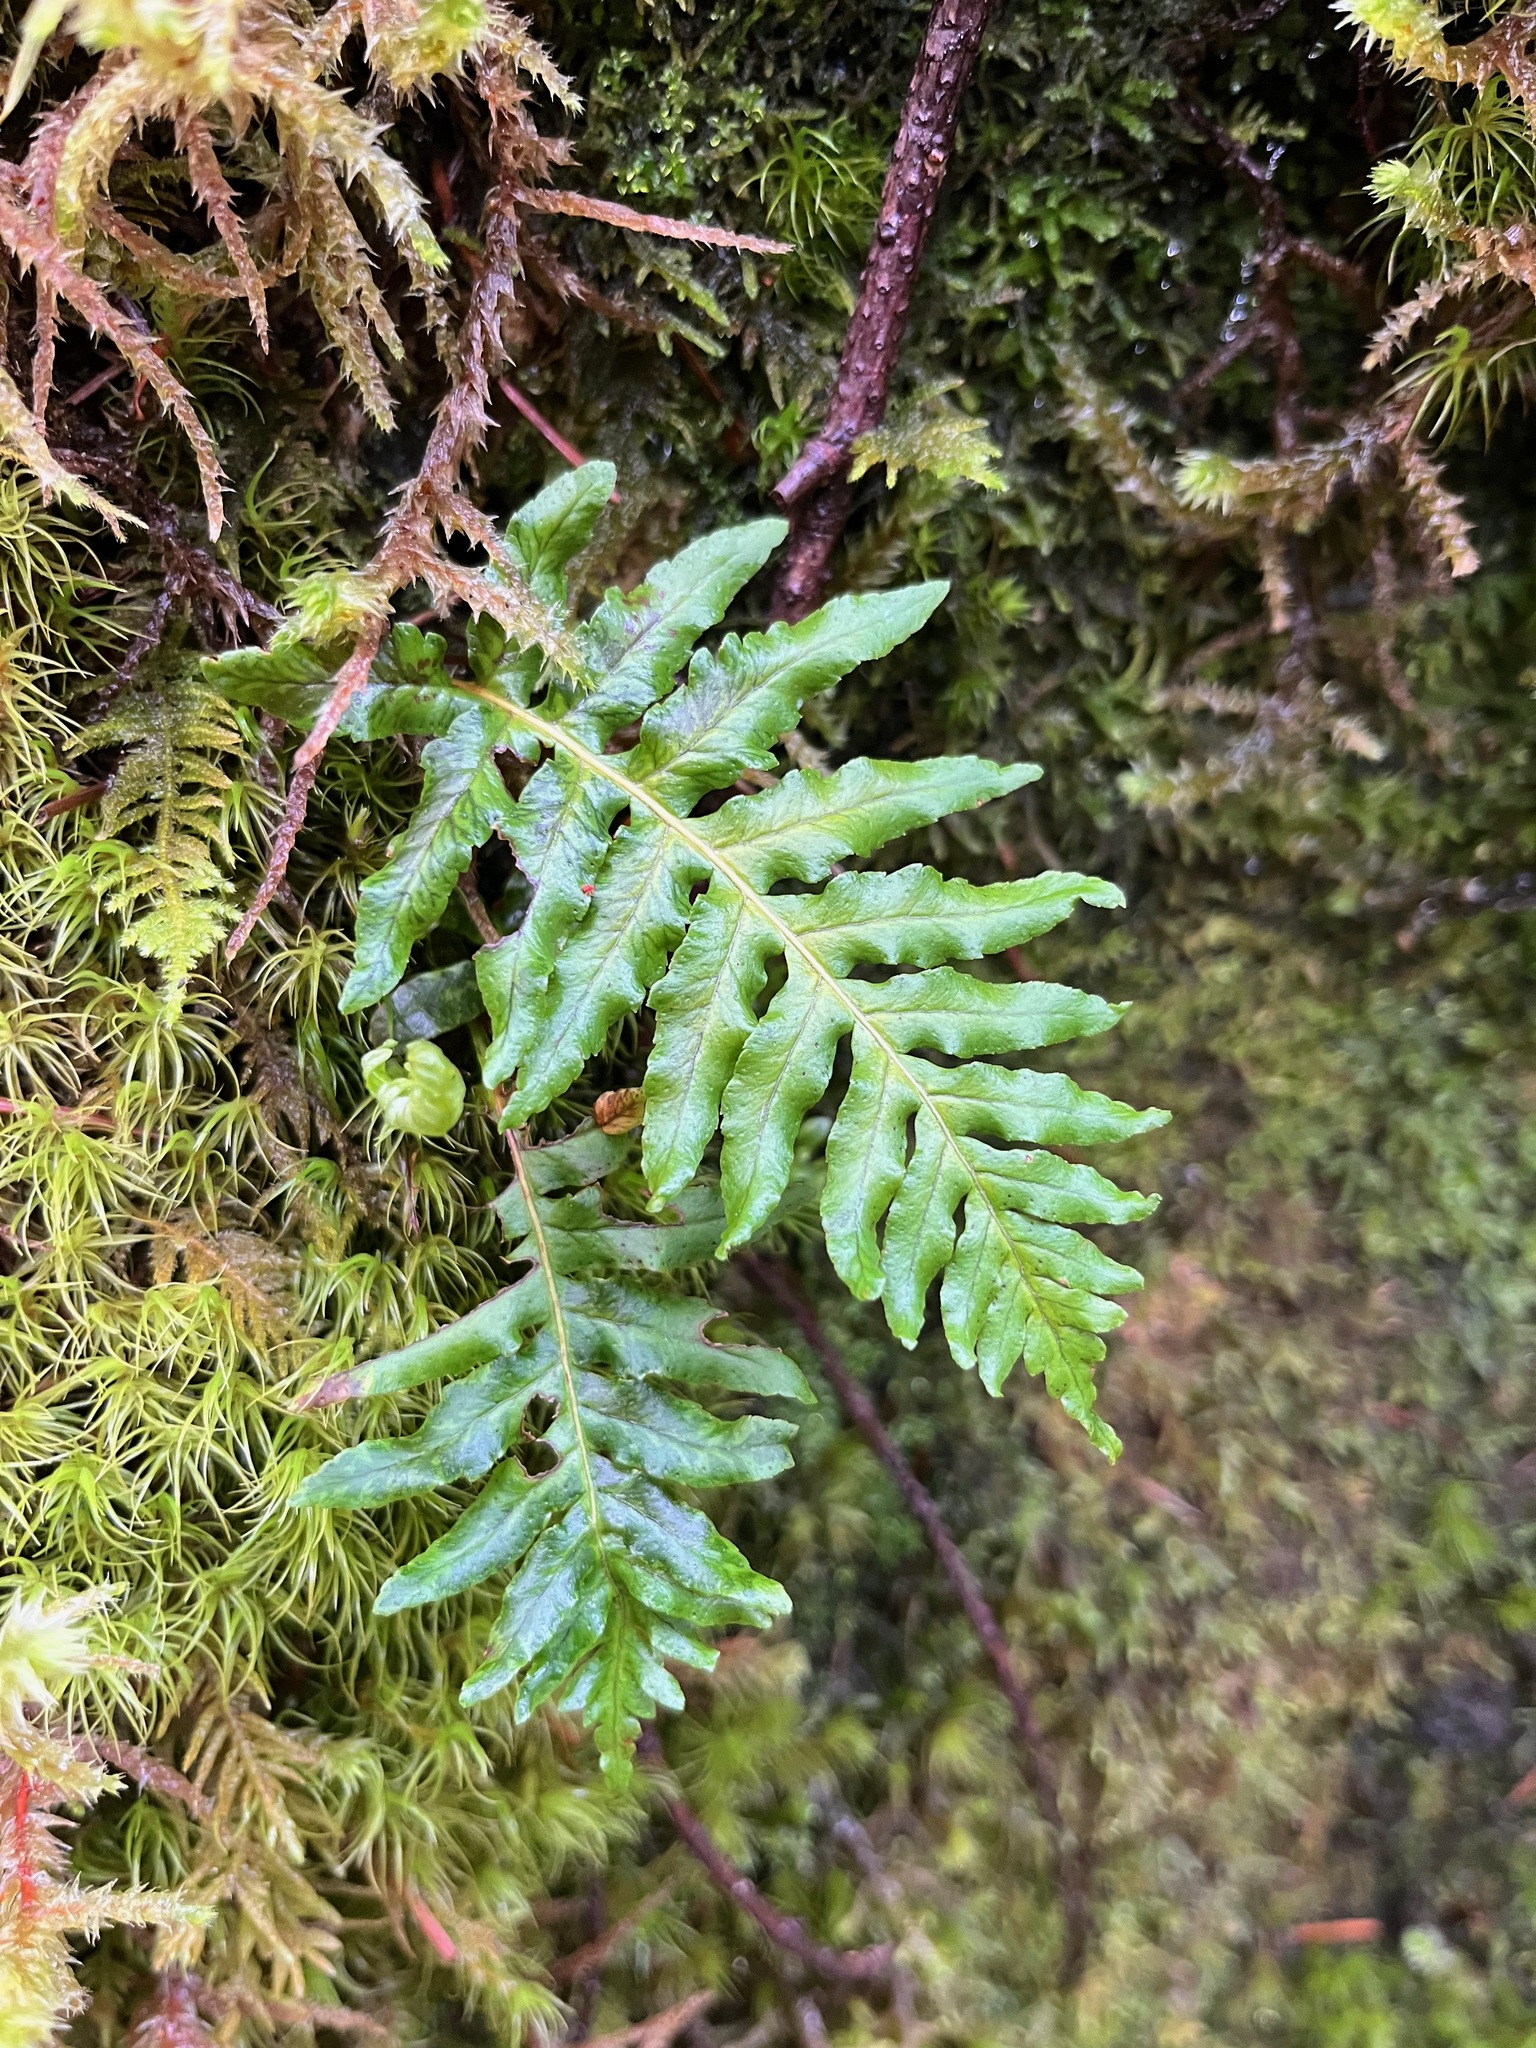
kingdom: Plantae
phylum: Tracheophyta
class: Polypodiopsida
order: Polypodiales
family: Polypodiaceae
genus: Polypodium
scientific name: Polypodium glycyrrhiza
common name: Licorice fern
